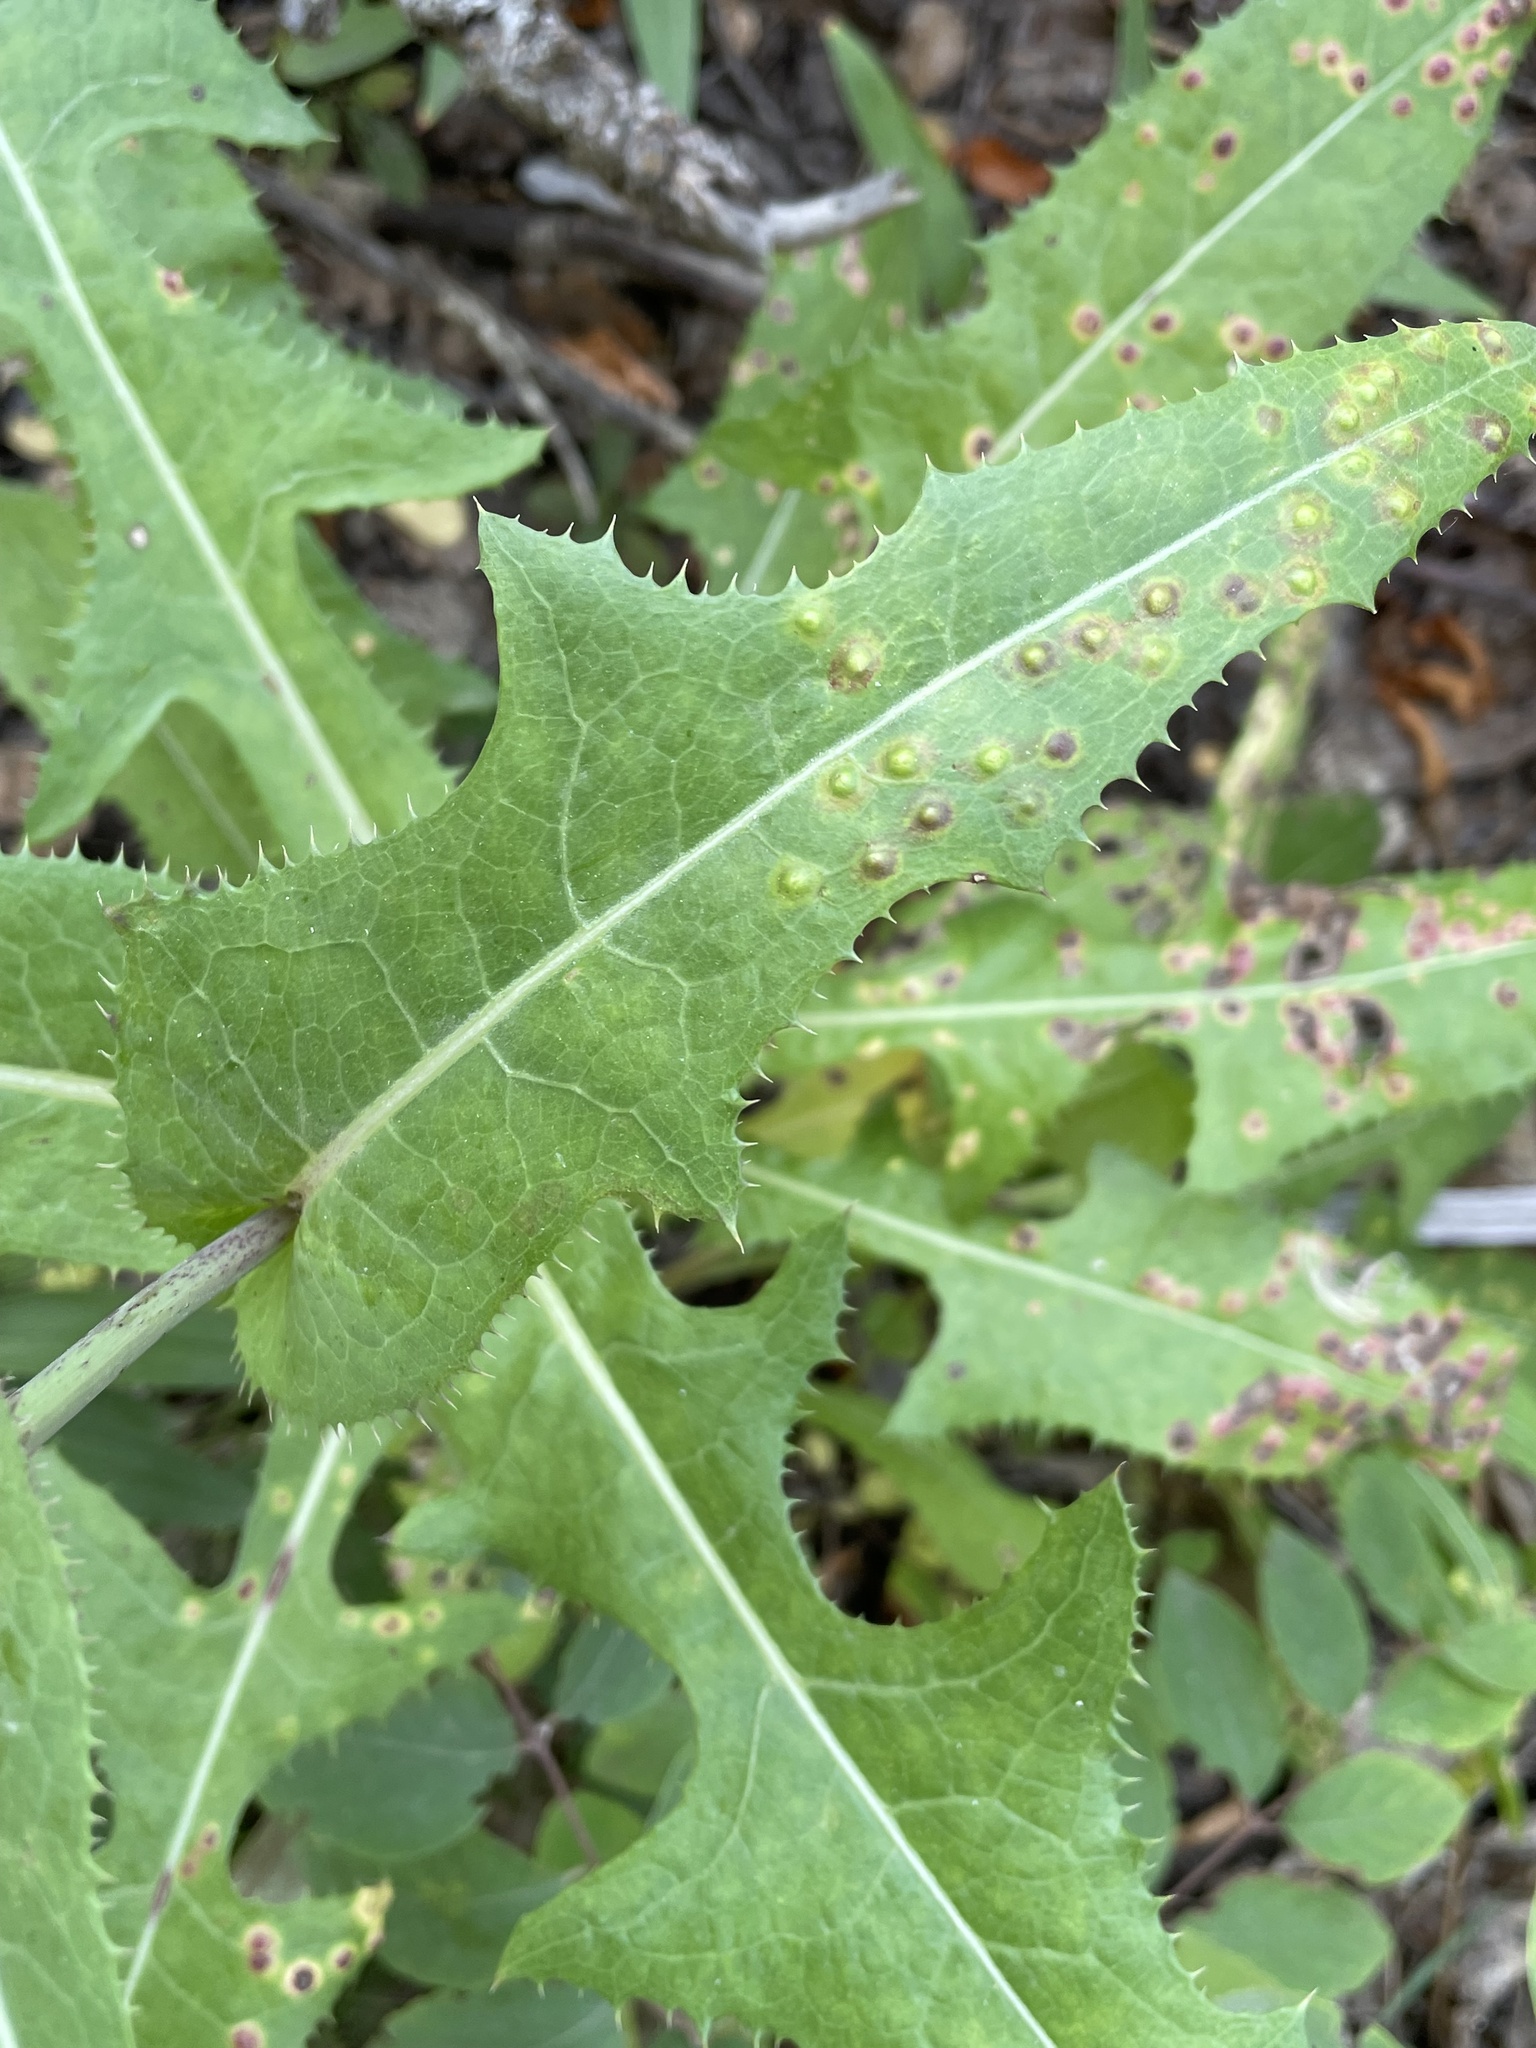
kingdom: Plantae
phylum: Tracheophyta
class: Magnoliopsida
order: Asterales
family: Asteraceae
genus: Sonchus
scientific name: Sonchus arvensis
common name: Perennial sow-thistle
